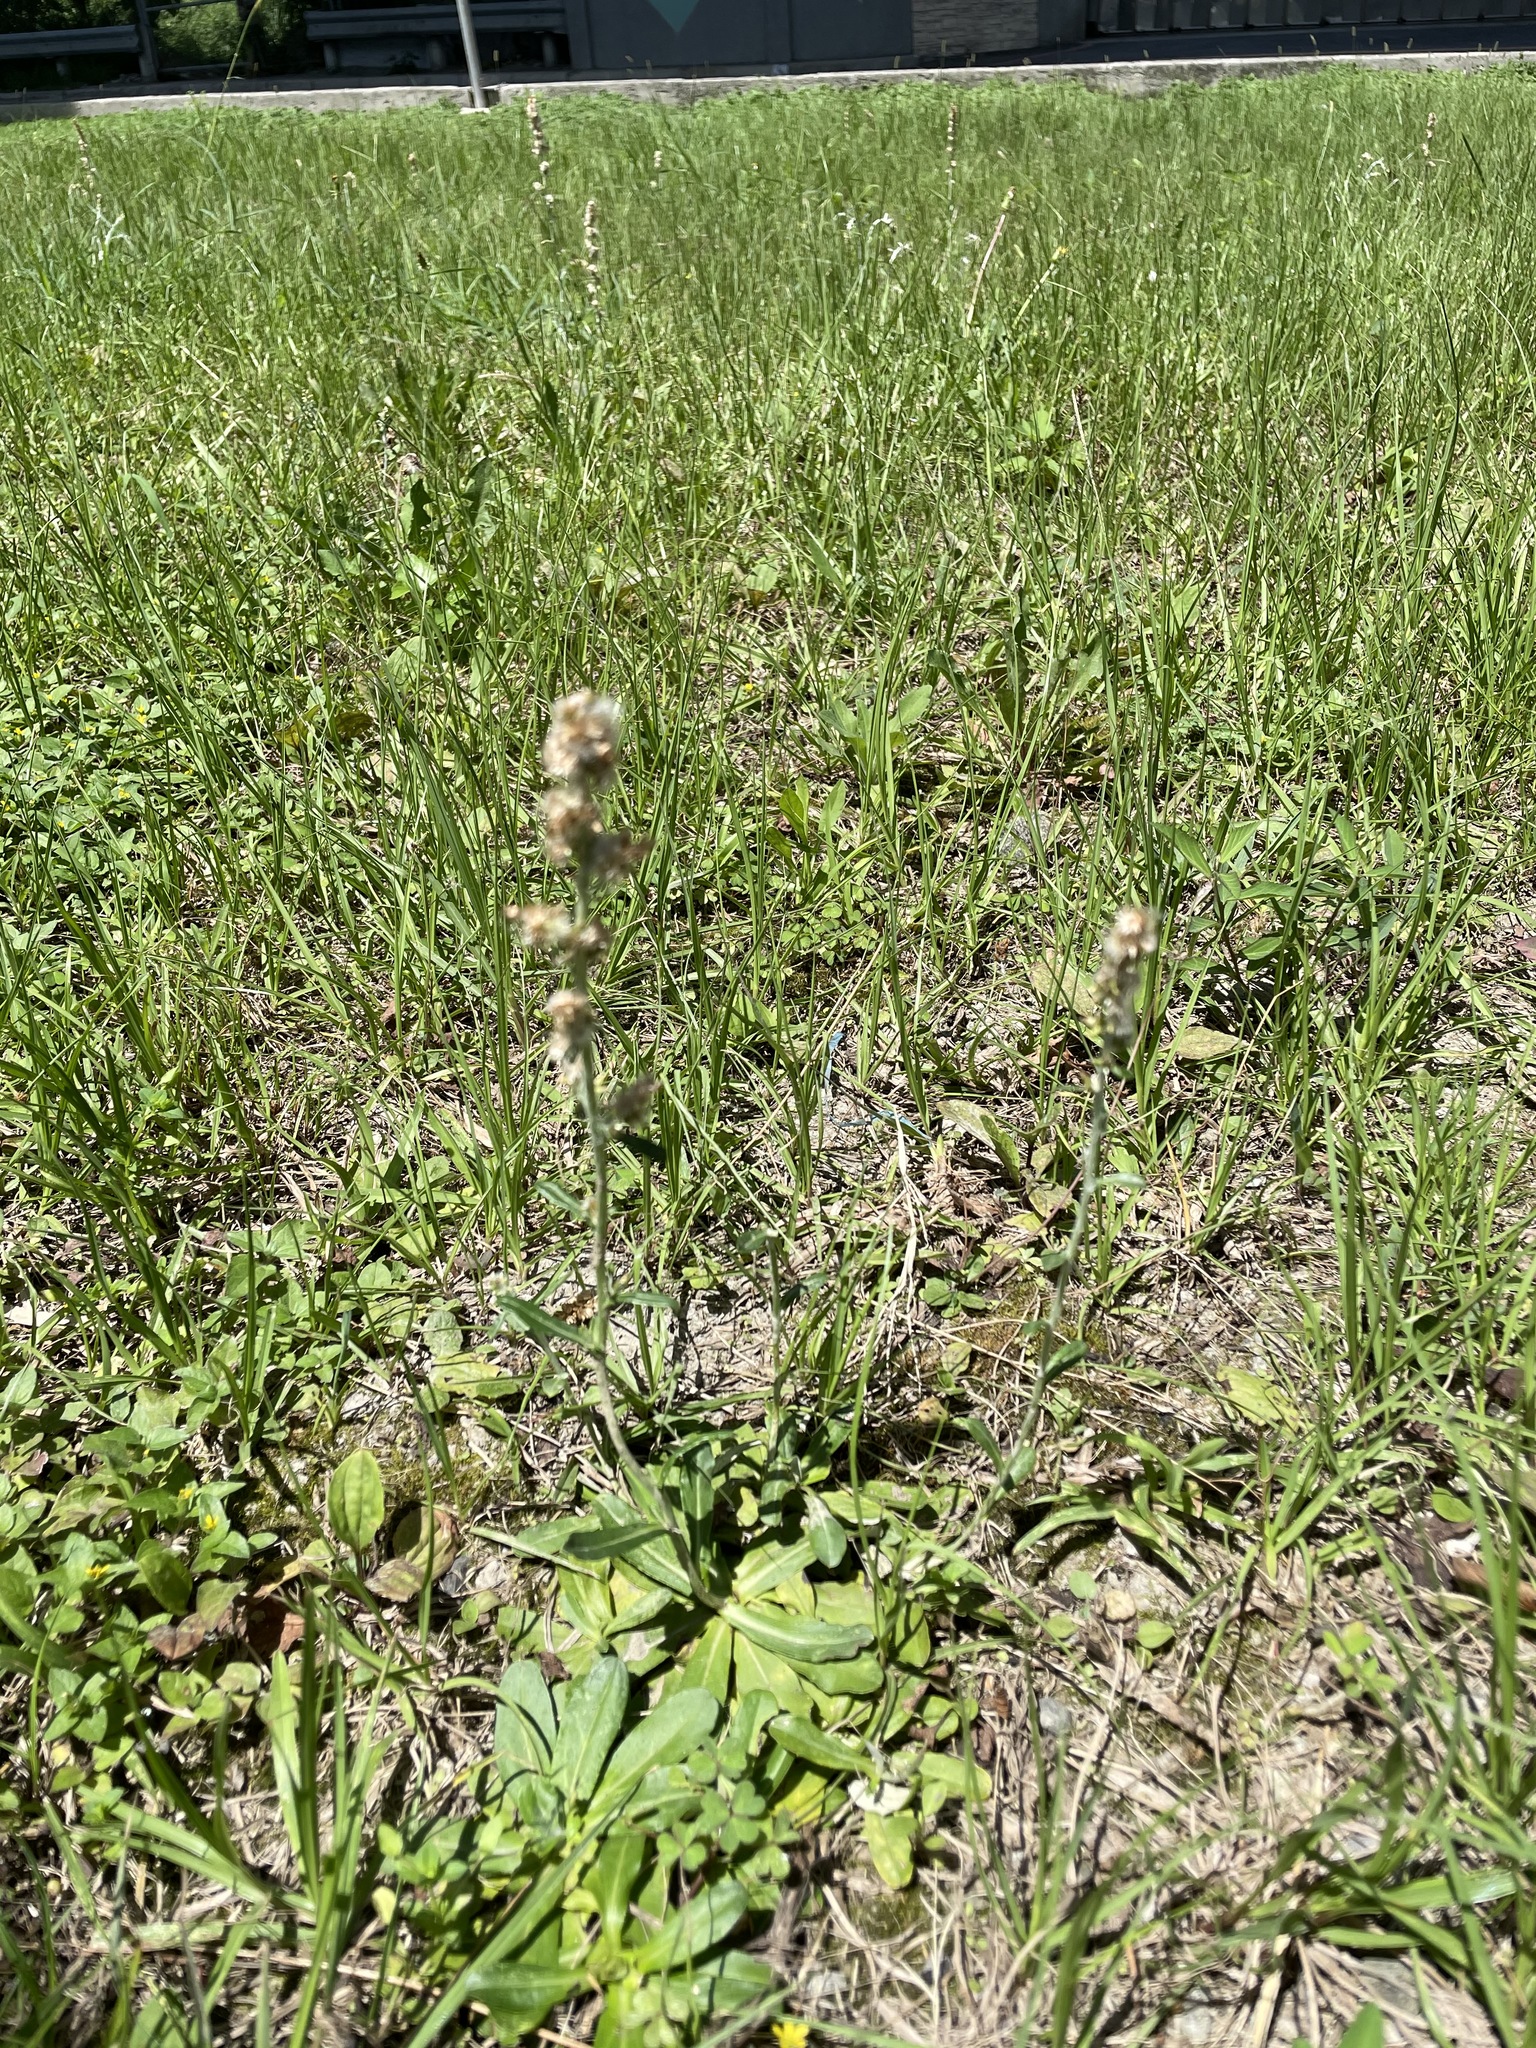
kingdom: Plantae
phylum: Tracheophyta
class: Magnoliopsida
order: Asterales
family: Asteraceae
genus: Gamochaeta
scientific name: Gamochaeta purpurea
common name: Purple cudweed
